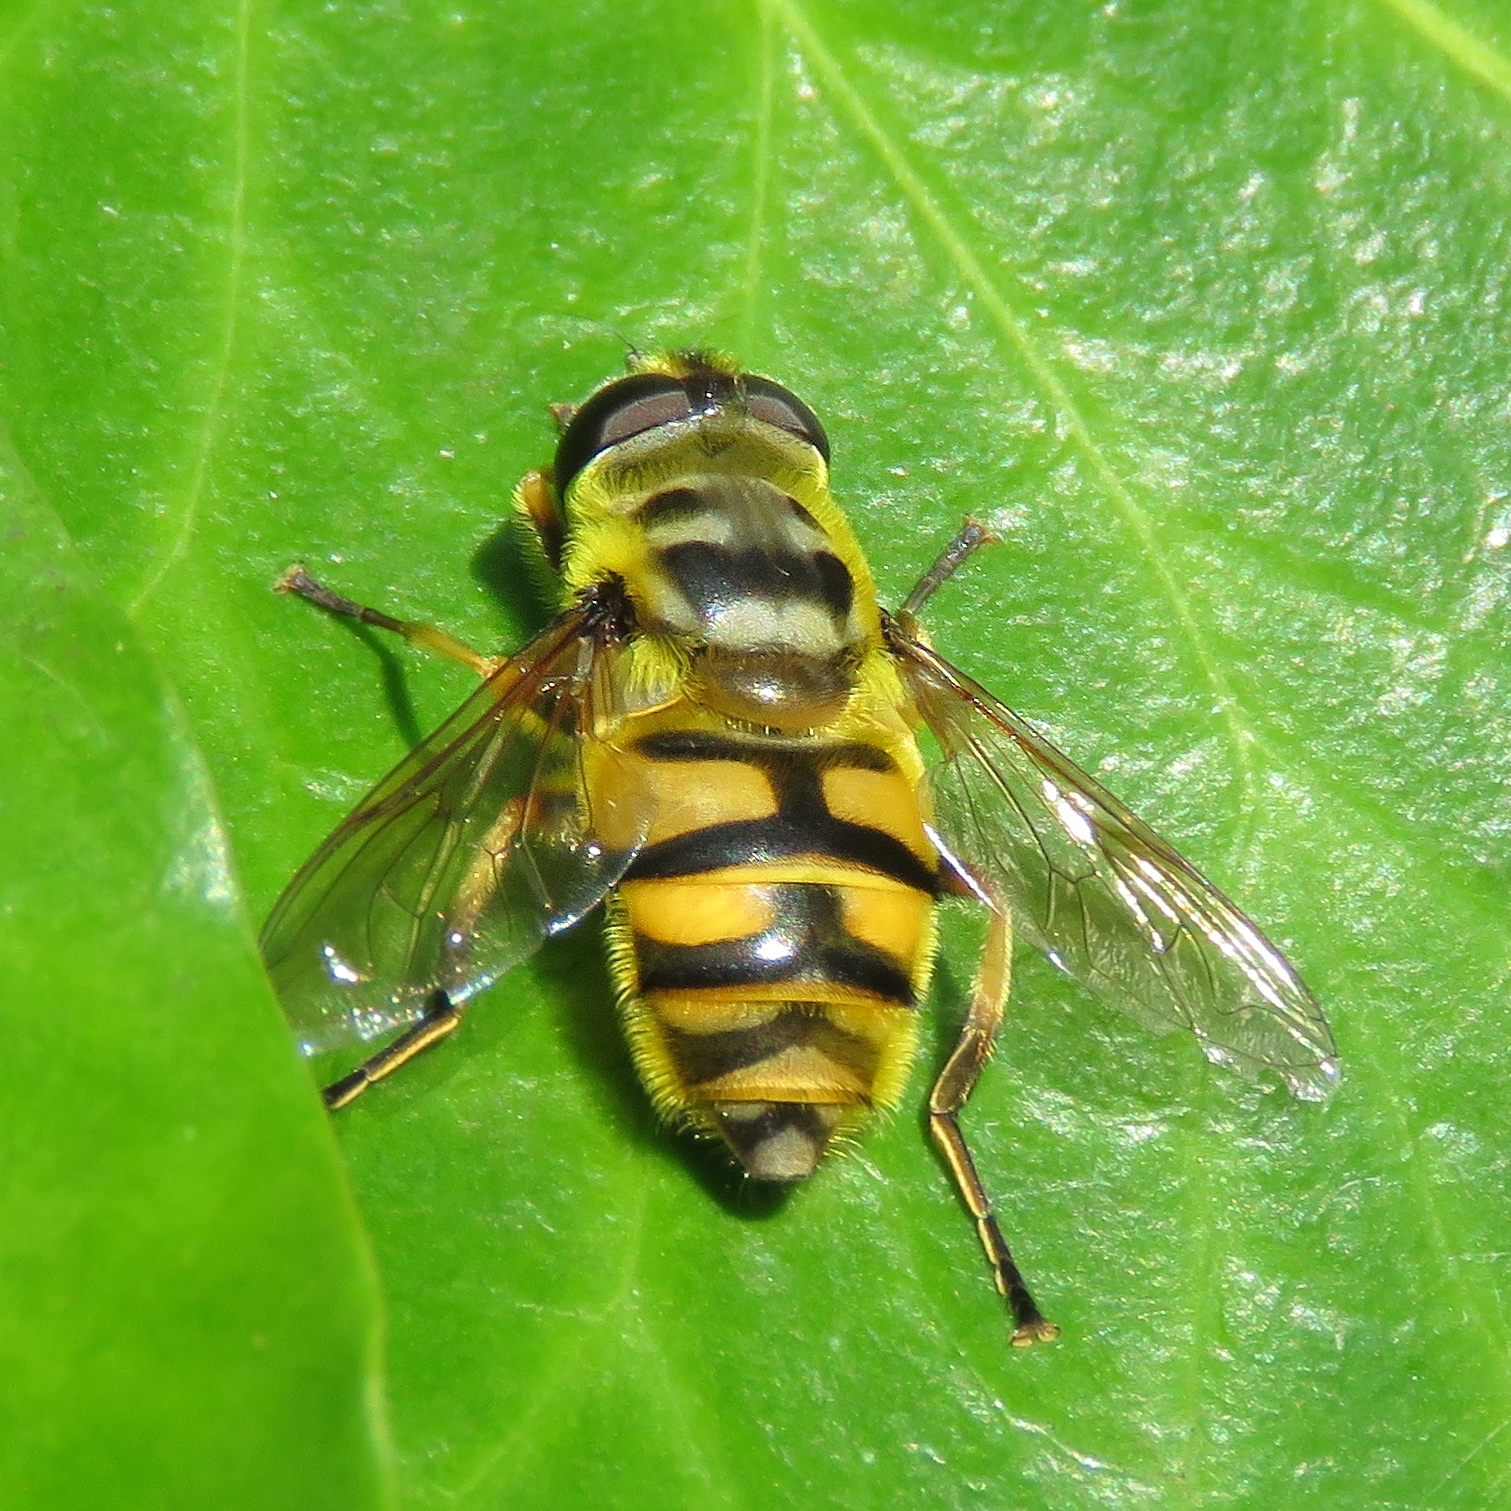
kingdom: Animalia
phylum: Arthropoda
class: Insecta
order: Diptera
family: Syrphidae
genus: Myathropa
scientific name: Myathropa florea
